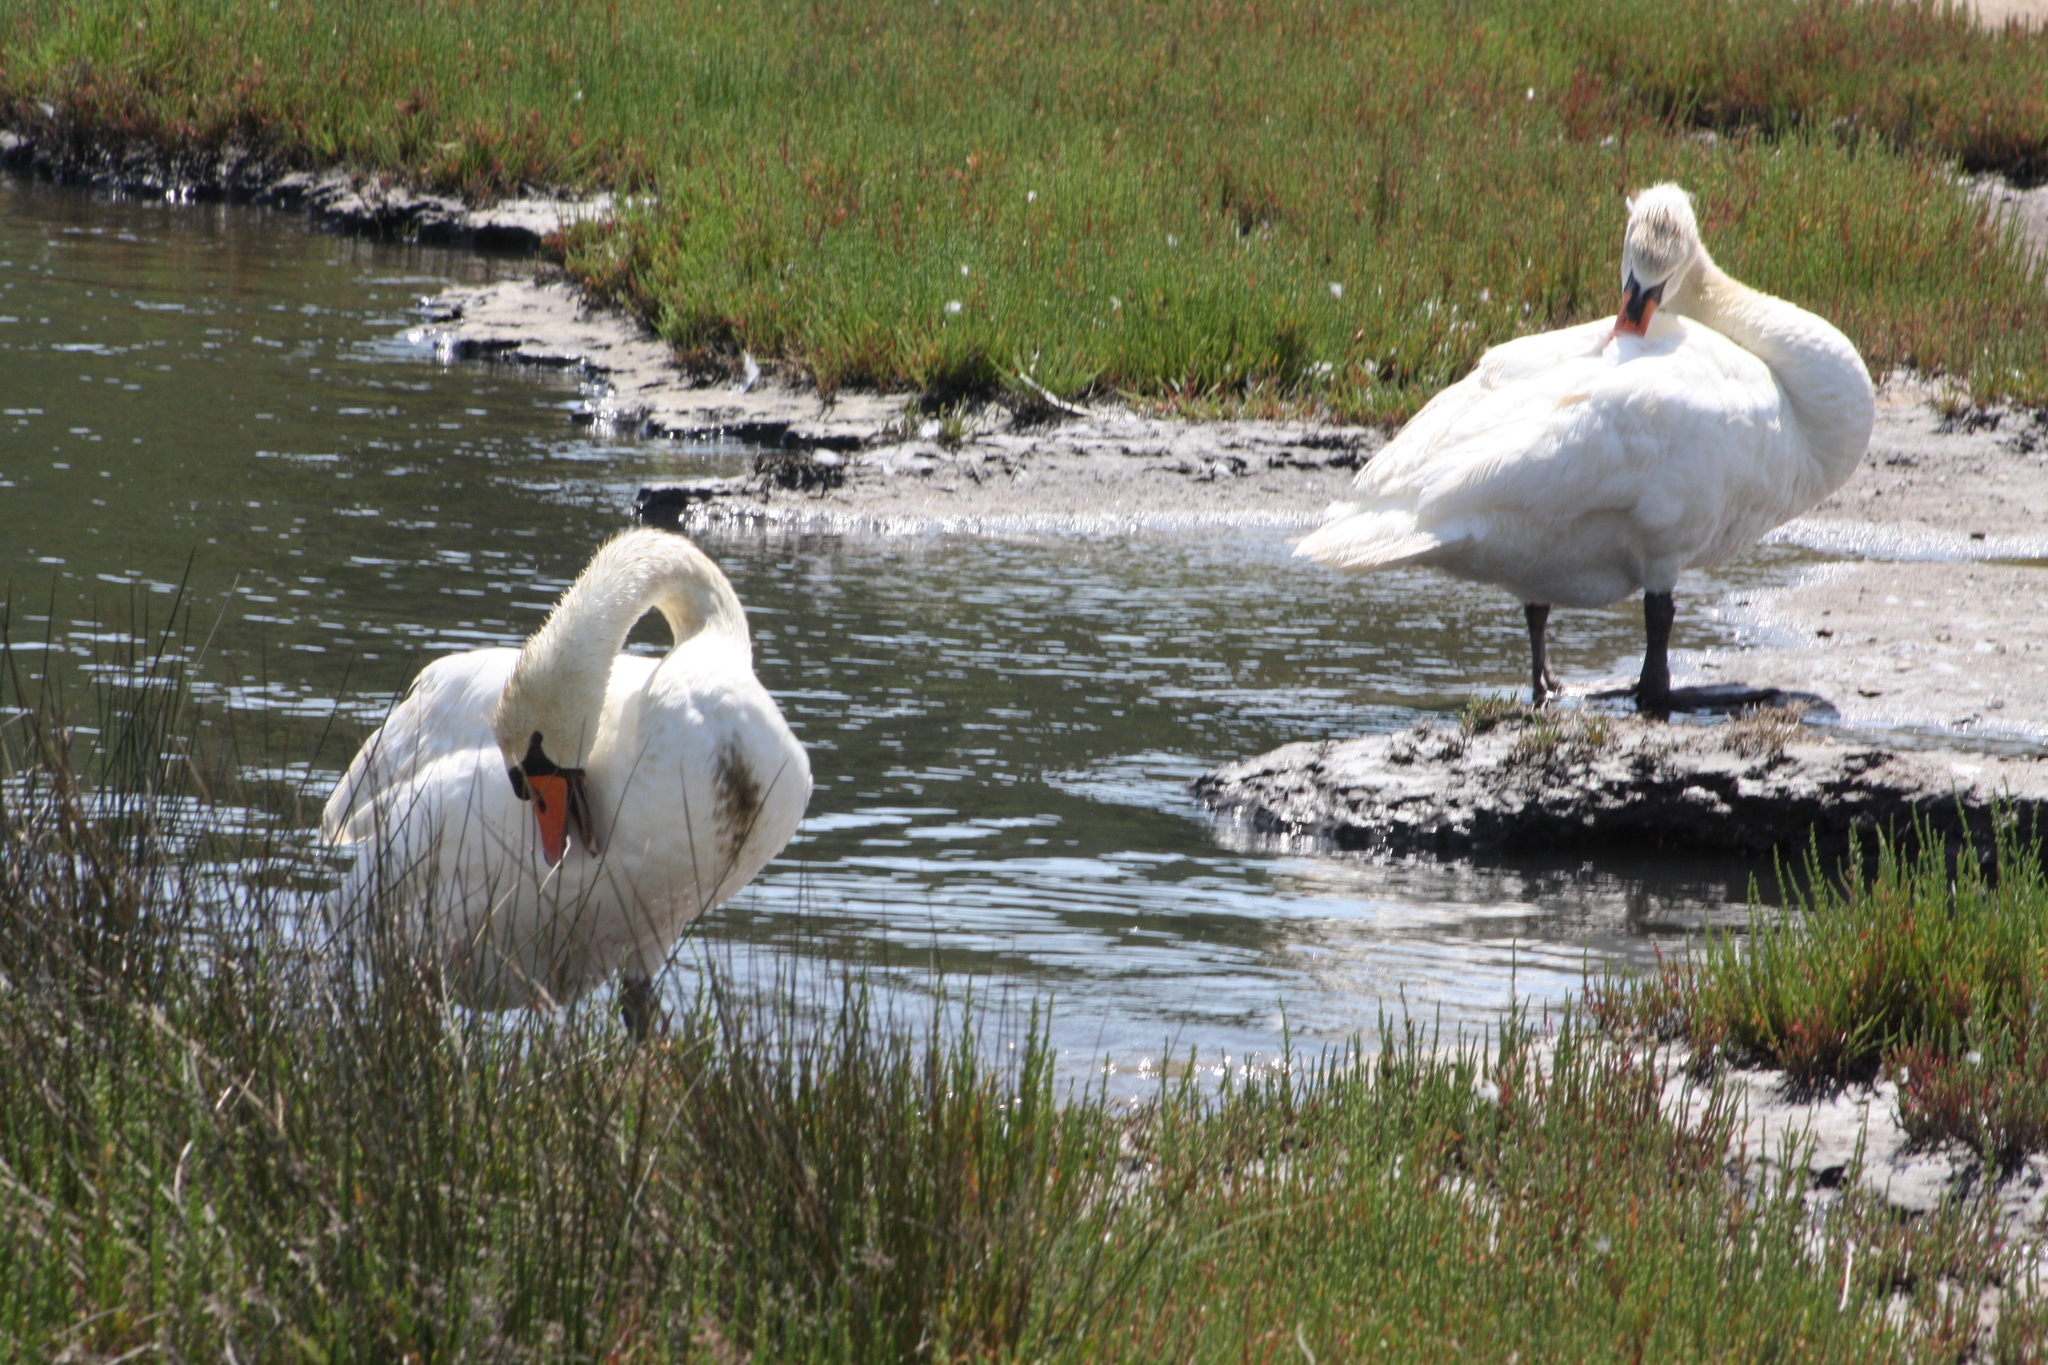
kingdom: Animalia
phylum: Chordata
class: Aves
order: Anseriformes
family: Anatidae
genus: Cygnus
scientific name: Cygnus olor
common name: Mute swan
